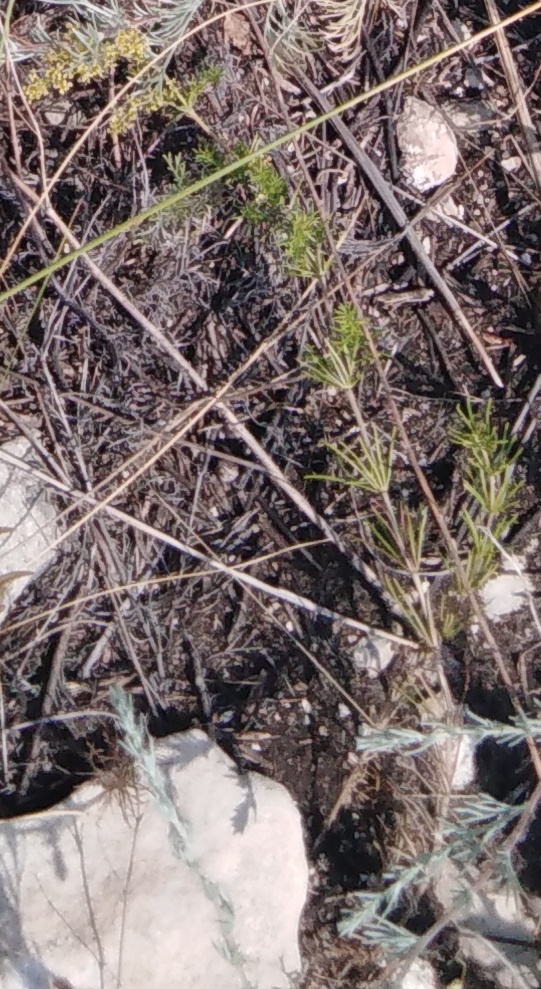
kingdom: Plantae
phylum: Tracheophyta
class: Magnoliopsida
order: Gentianales
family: Rubiaceae
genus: Galium
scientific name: Galium verum
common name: Lady's bedstraw
